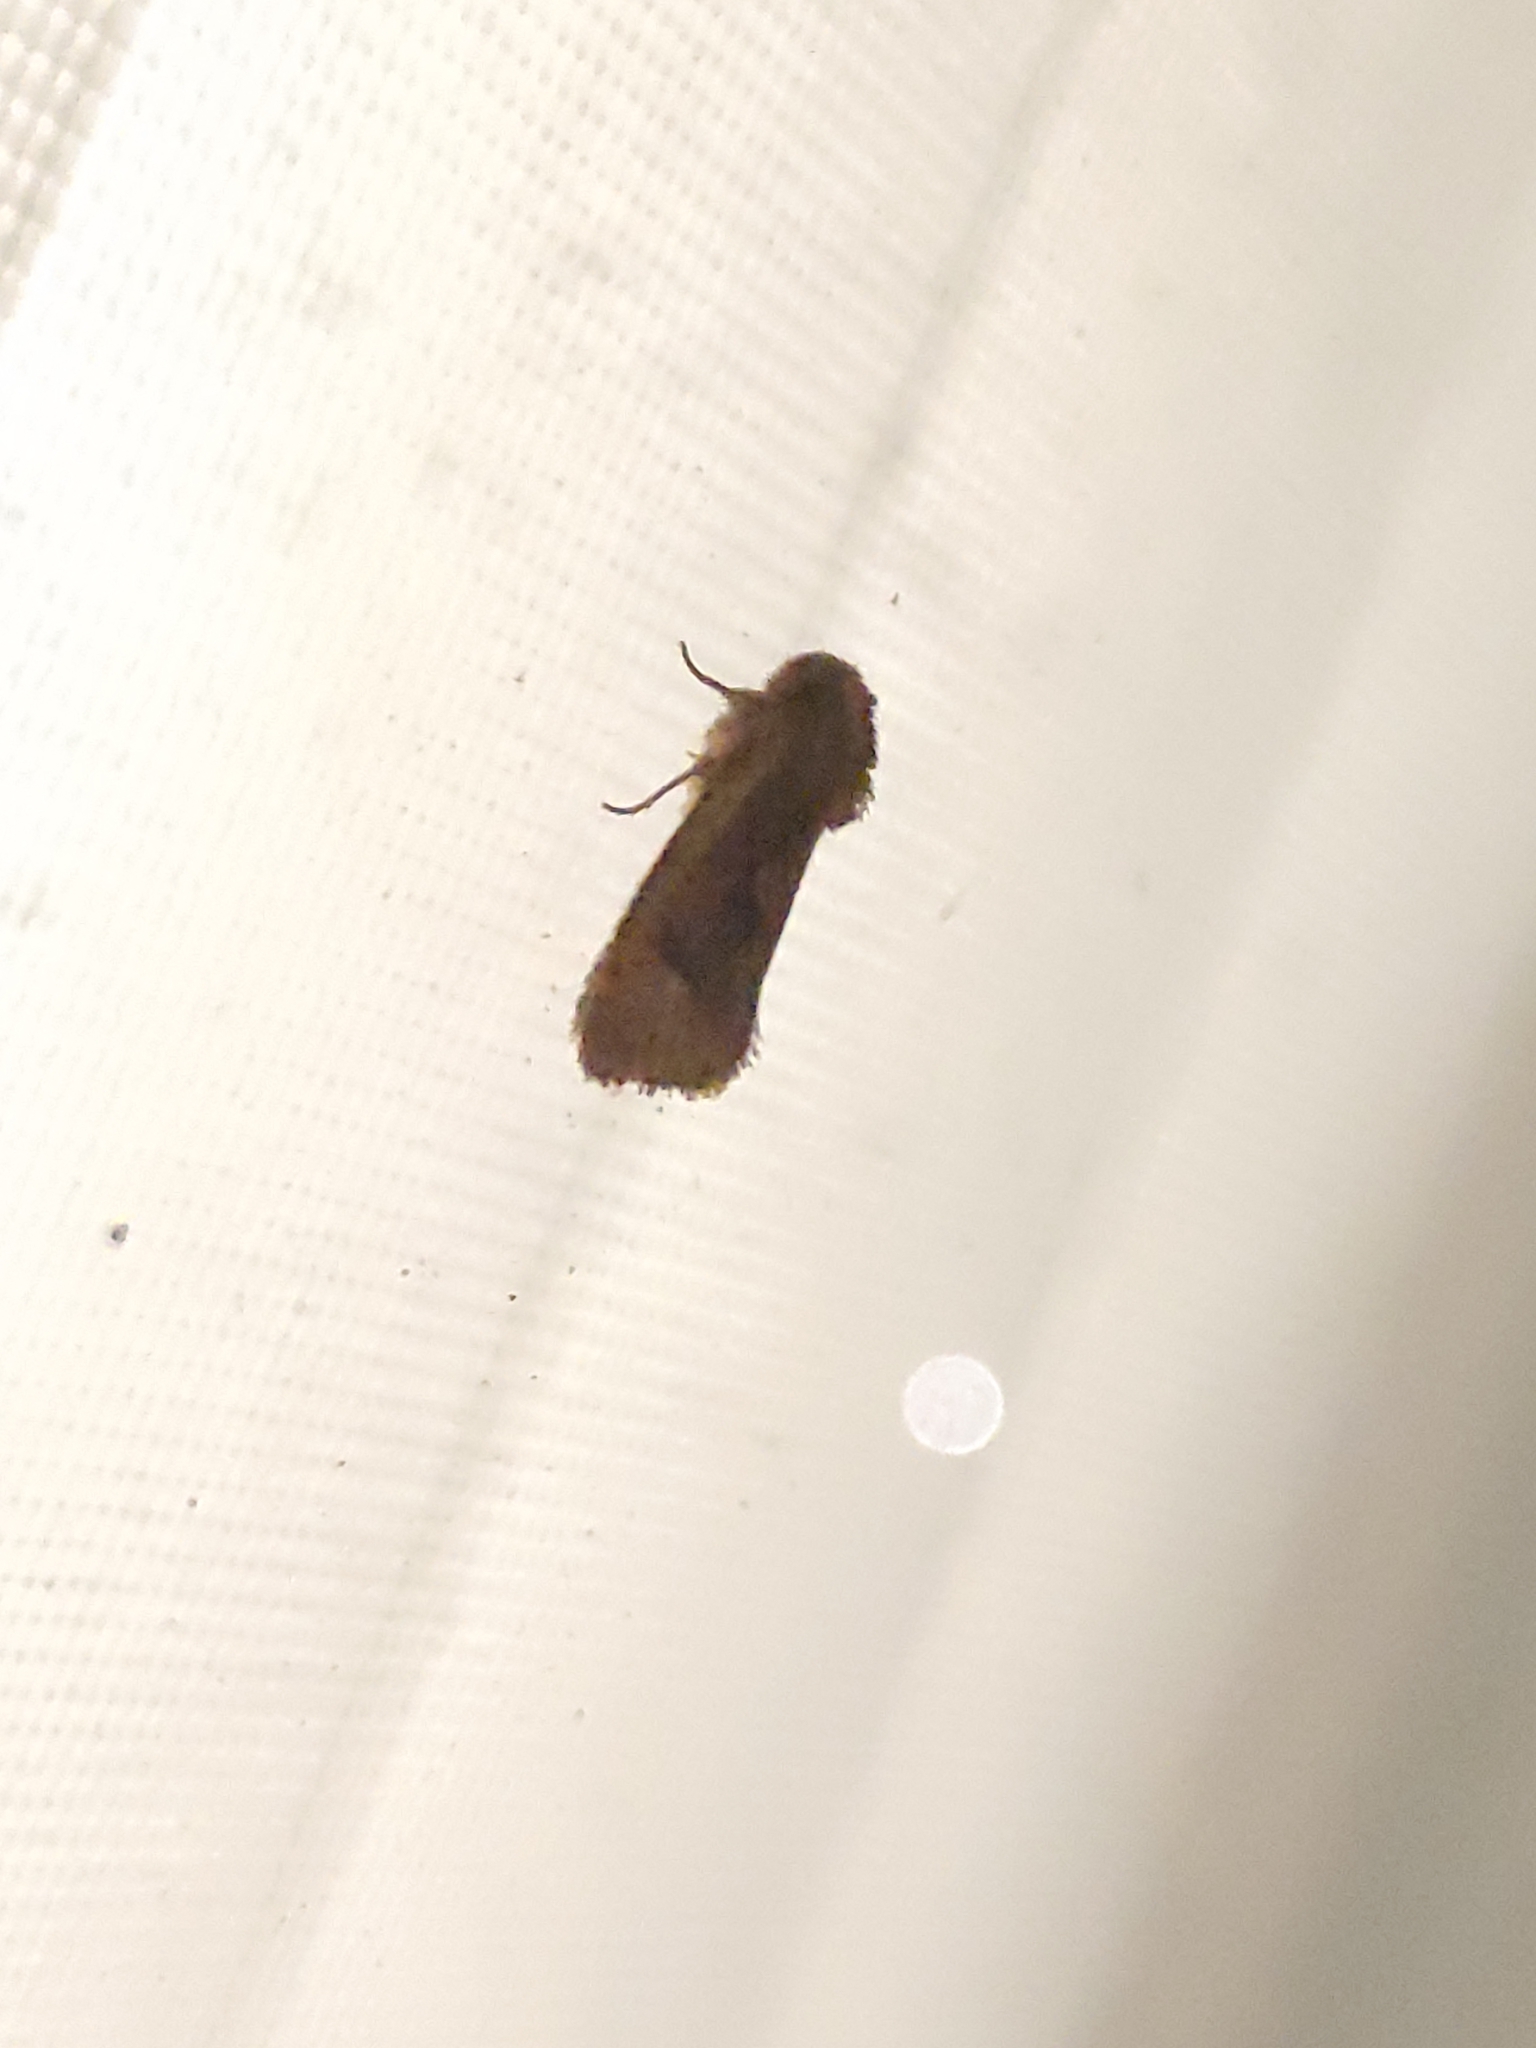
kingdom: Animalia
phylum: Arthropoda
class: Insecta
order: Lepidoptera
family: Tineidae
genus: Acrolophus
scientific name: Acrolophus walsinghami
